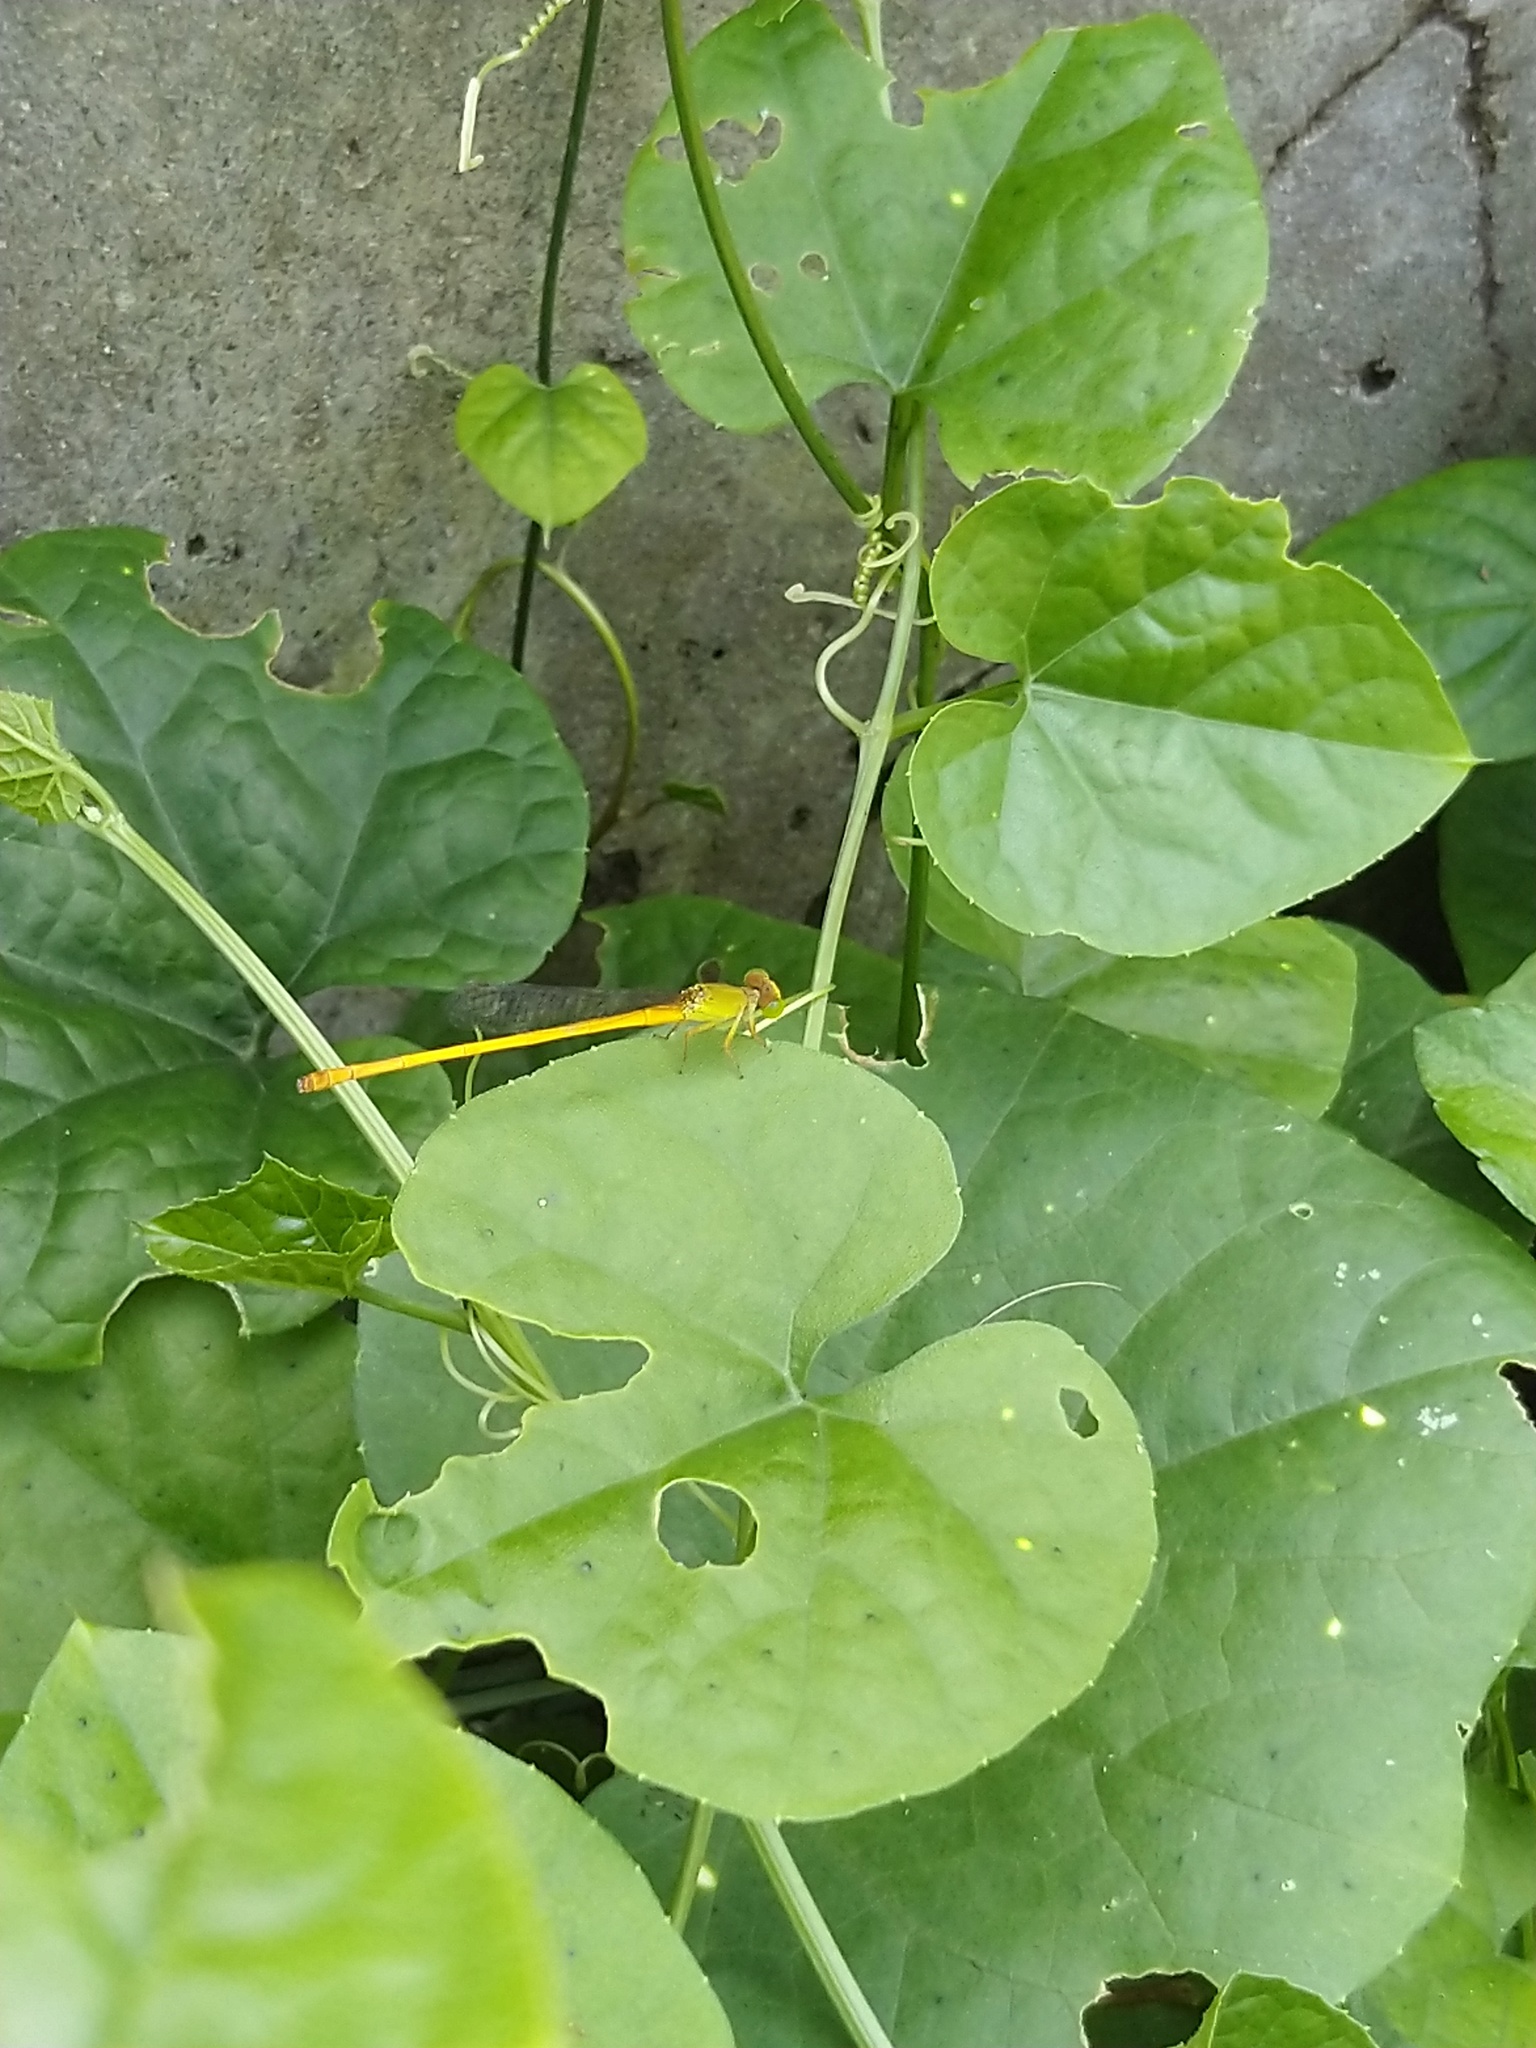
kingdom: Animalia
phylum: Arthropoda
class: Insecta
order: Odonata
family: Coenagrionidae
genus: Ceriagrion
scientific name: Ceriagrion coromandelianum
